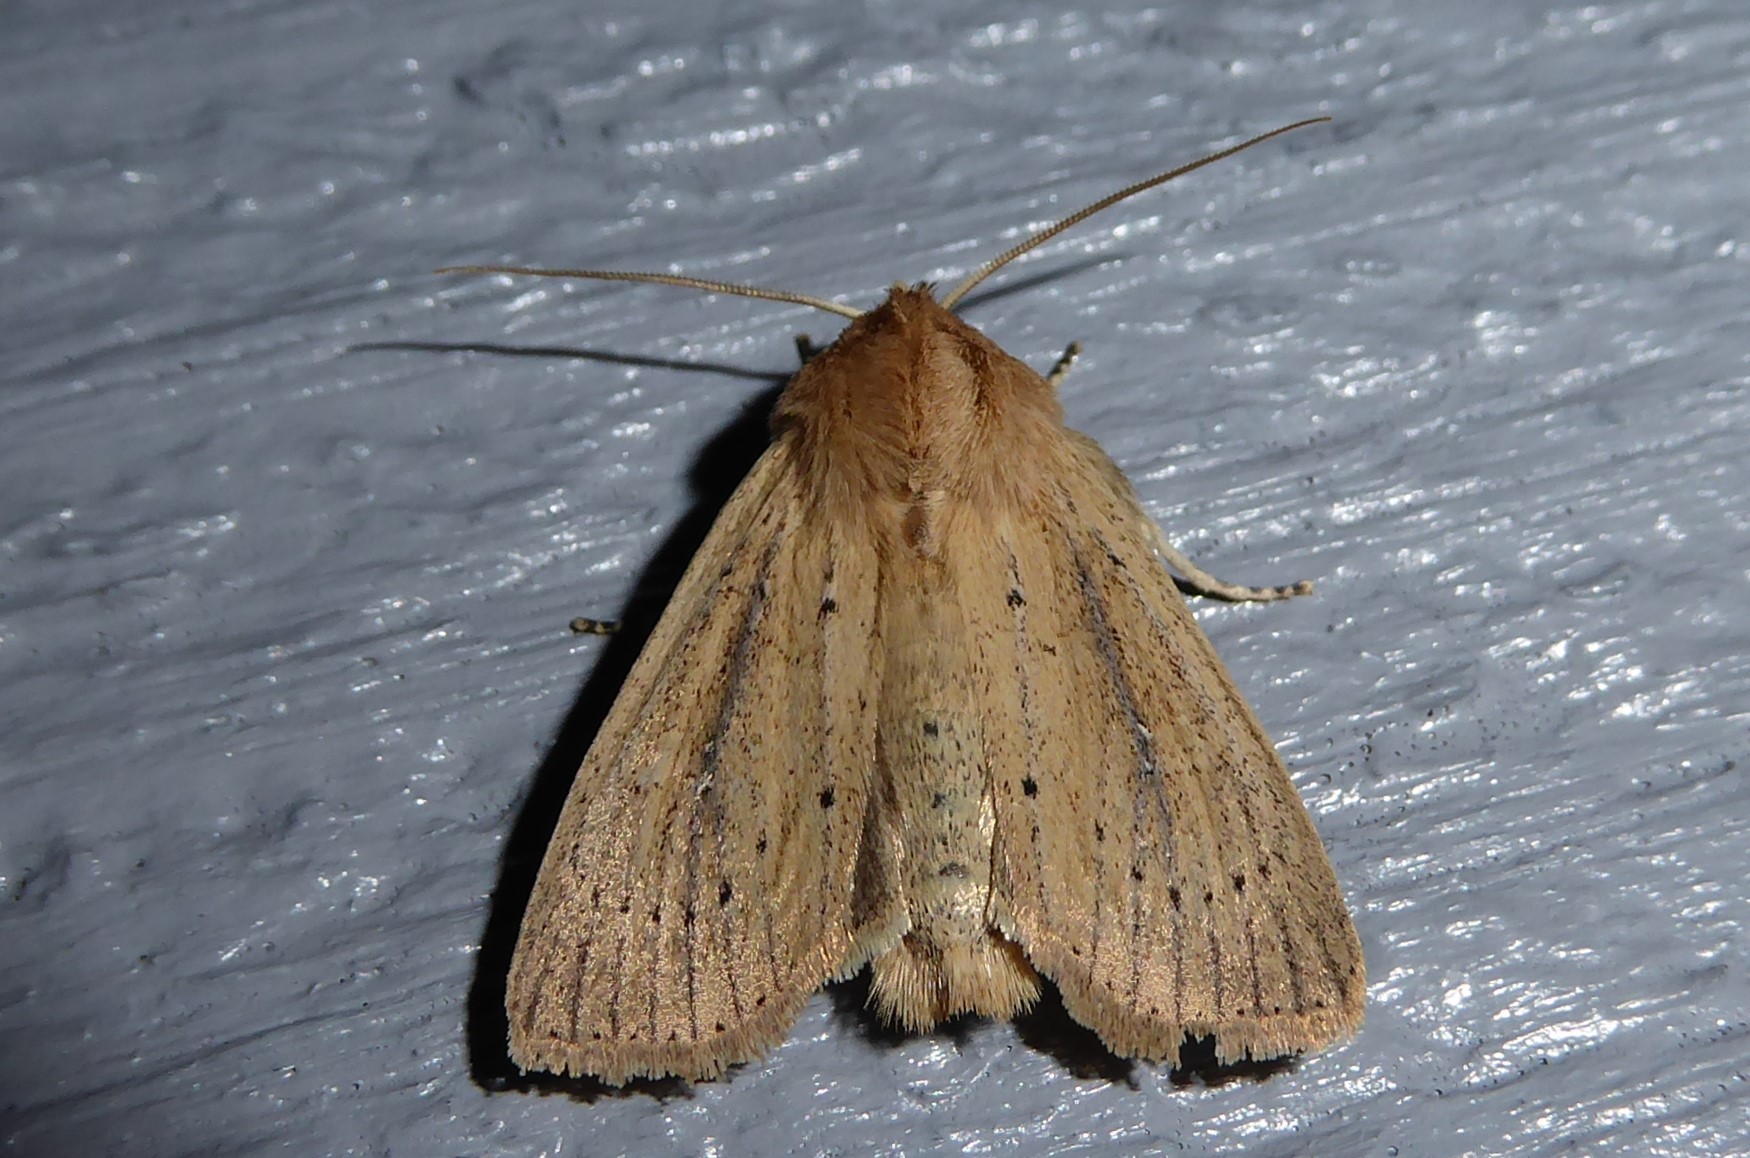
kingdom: Animalia
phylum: Arthropoda
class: Insecta
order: Lepidoptera
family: Noctuidae
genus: Ichneutica
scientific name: Ichneutica
